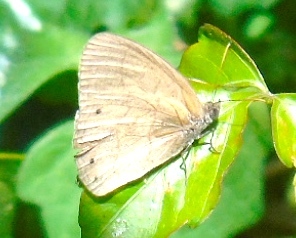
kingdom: Animalia
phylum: Arthropoda
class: Insecta
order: Lepidoptera
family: Nymphalidae
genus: Euptychia
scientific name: Euptychia
